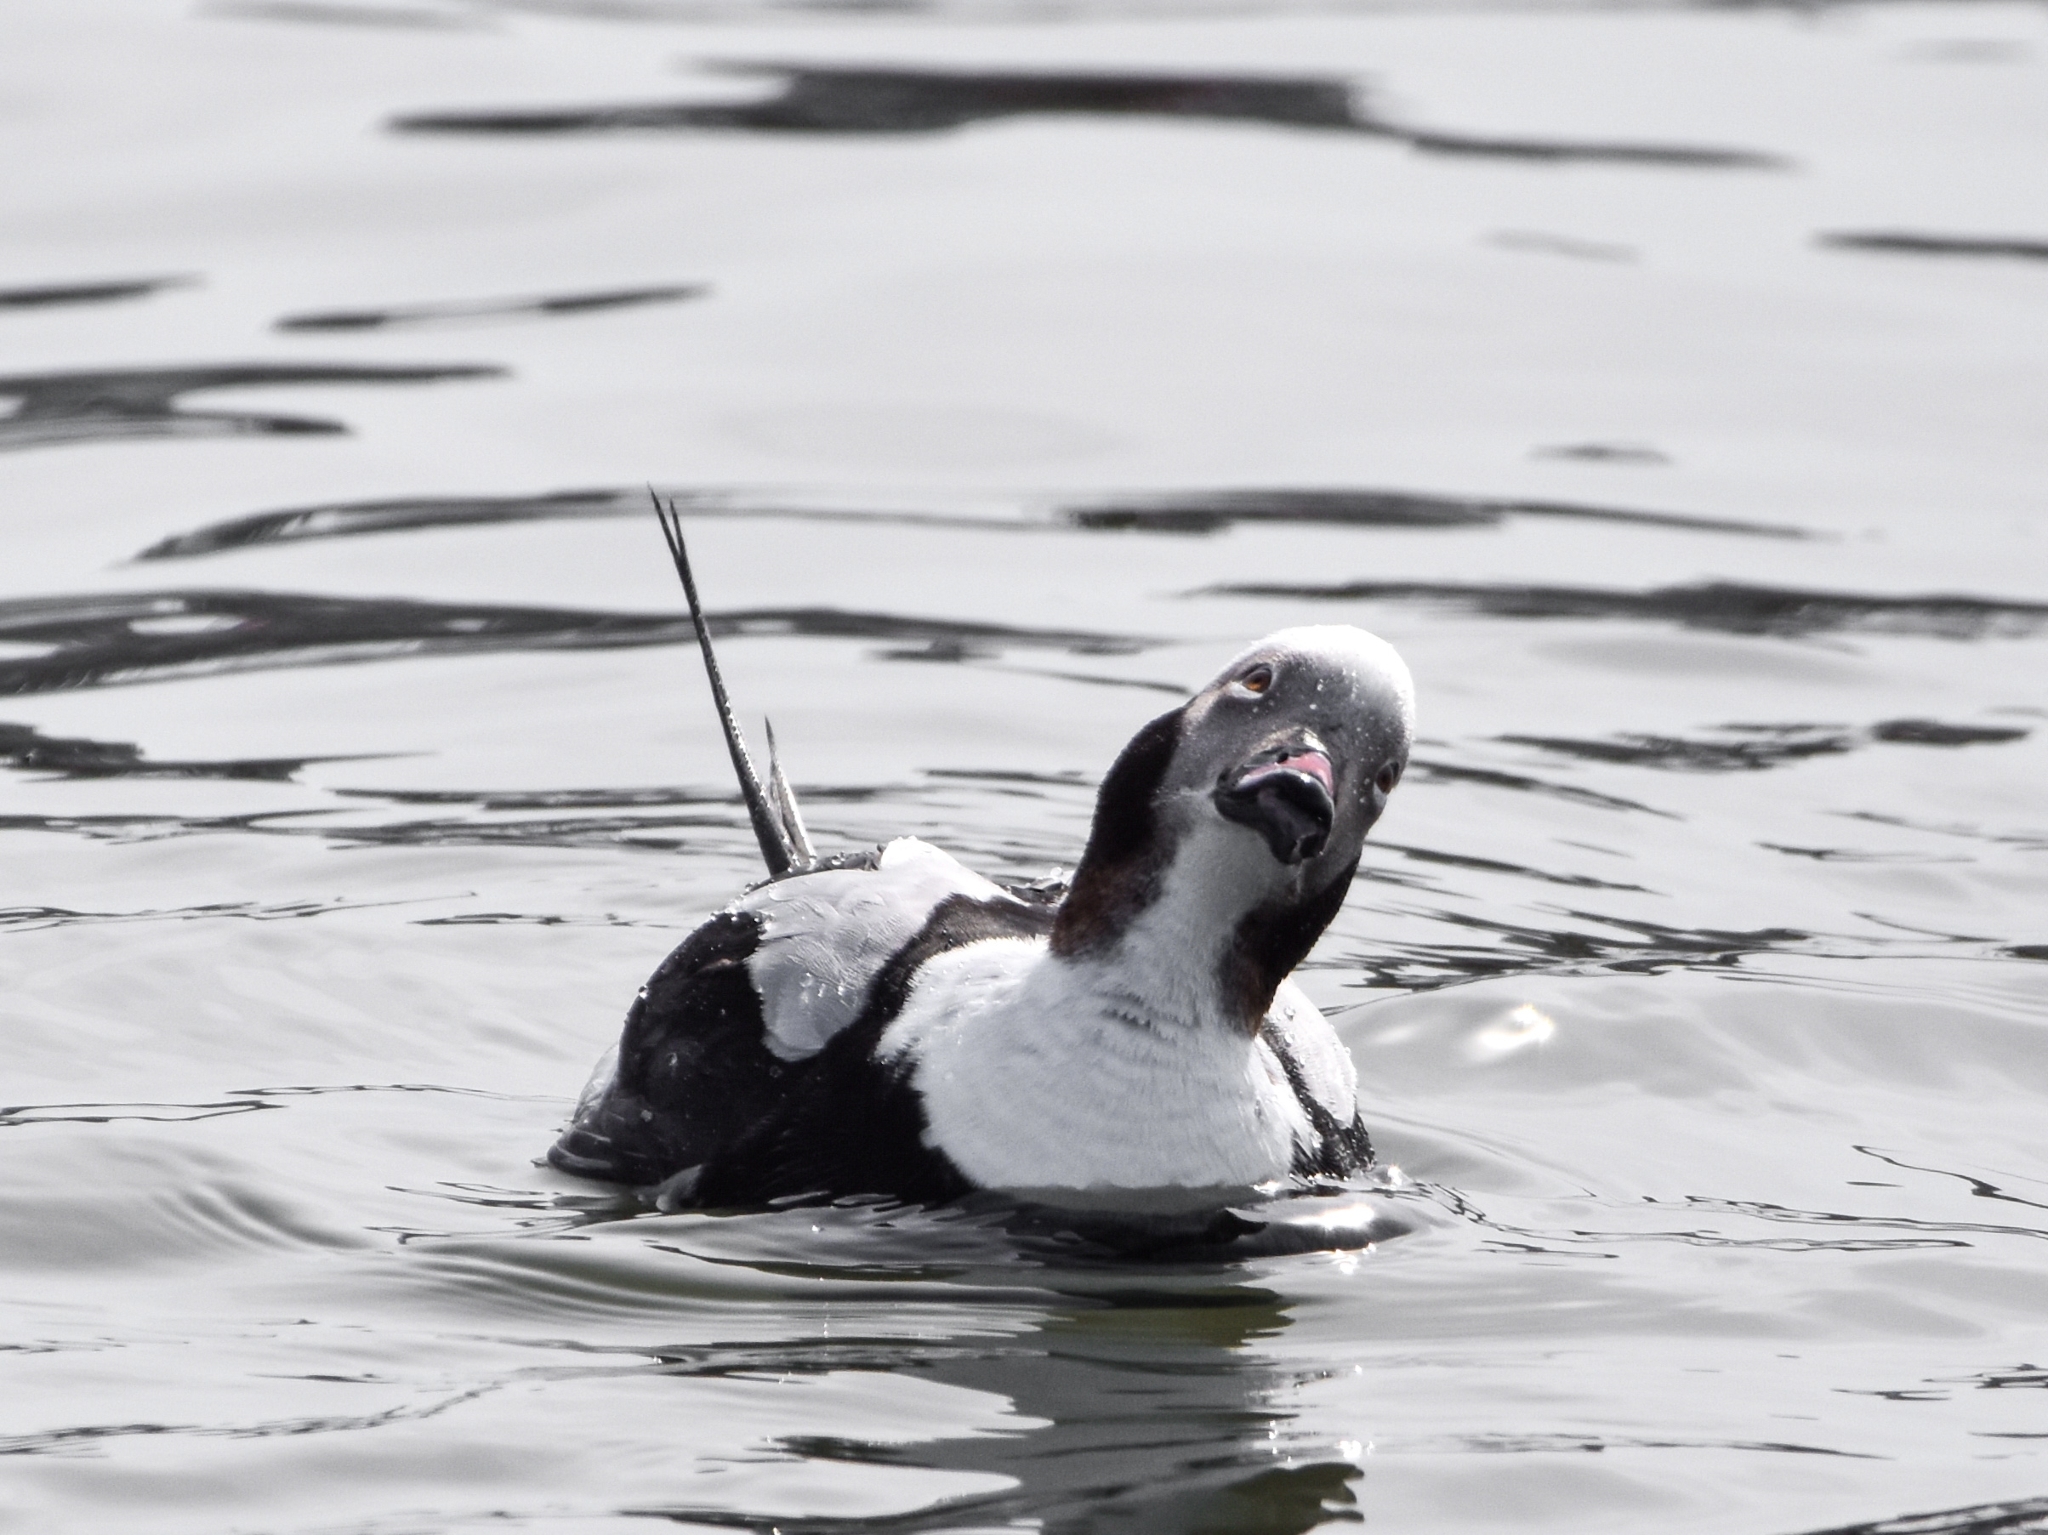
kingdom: Animalia
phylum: Chordata
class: Aves
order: Anseriformes
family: Anatidae
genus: Clangula
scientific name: Clangula hyemalis
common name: Long-tailed duck
